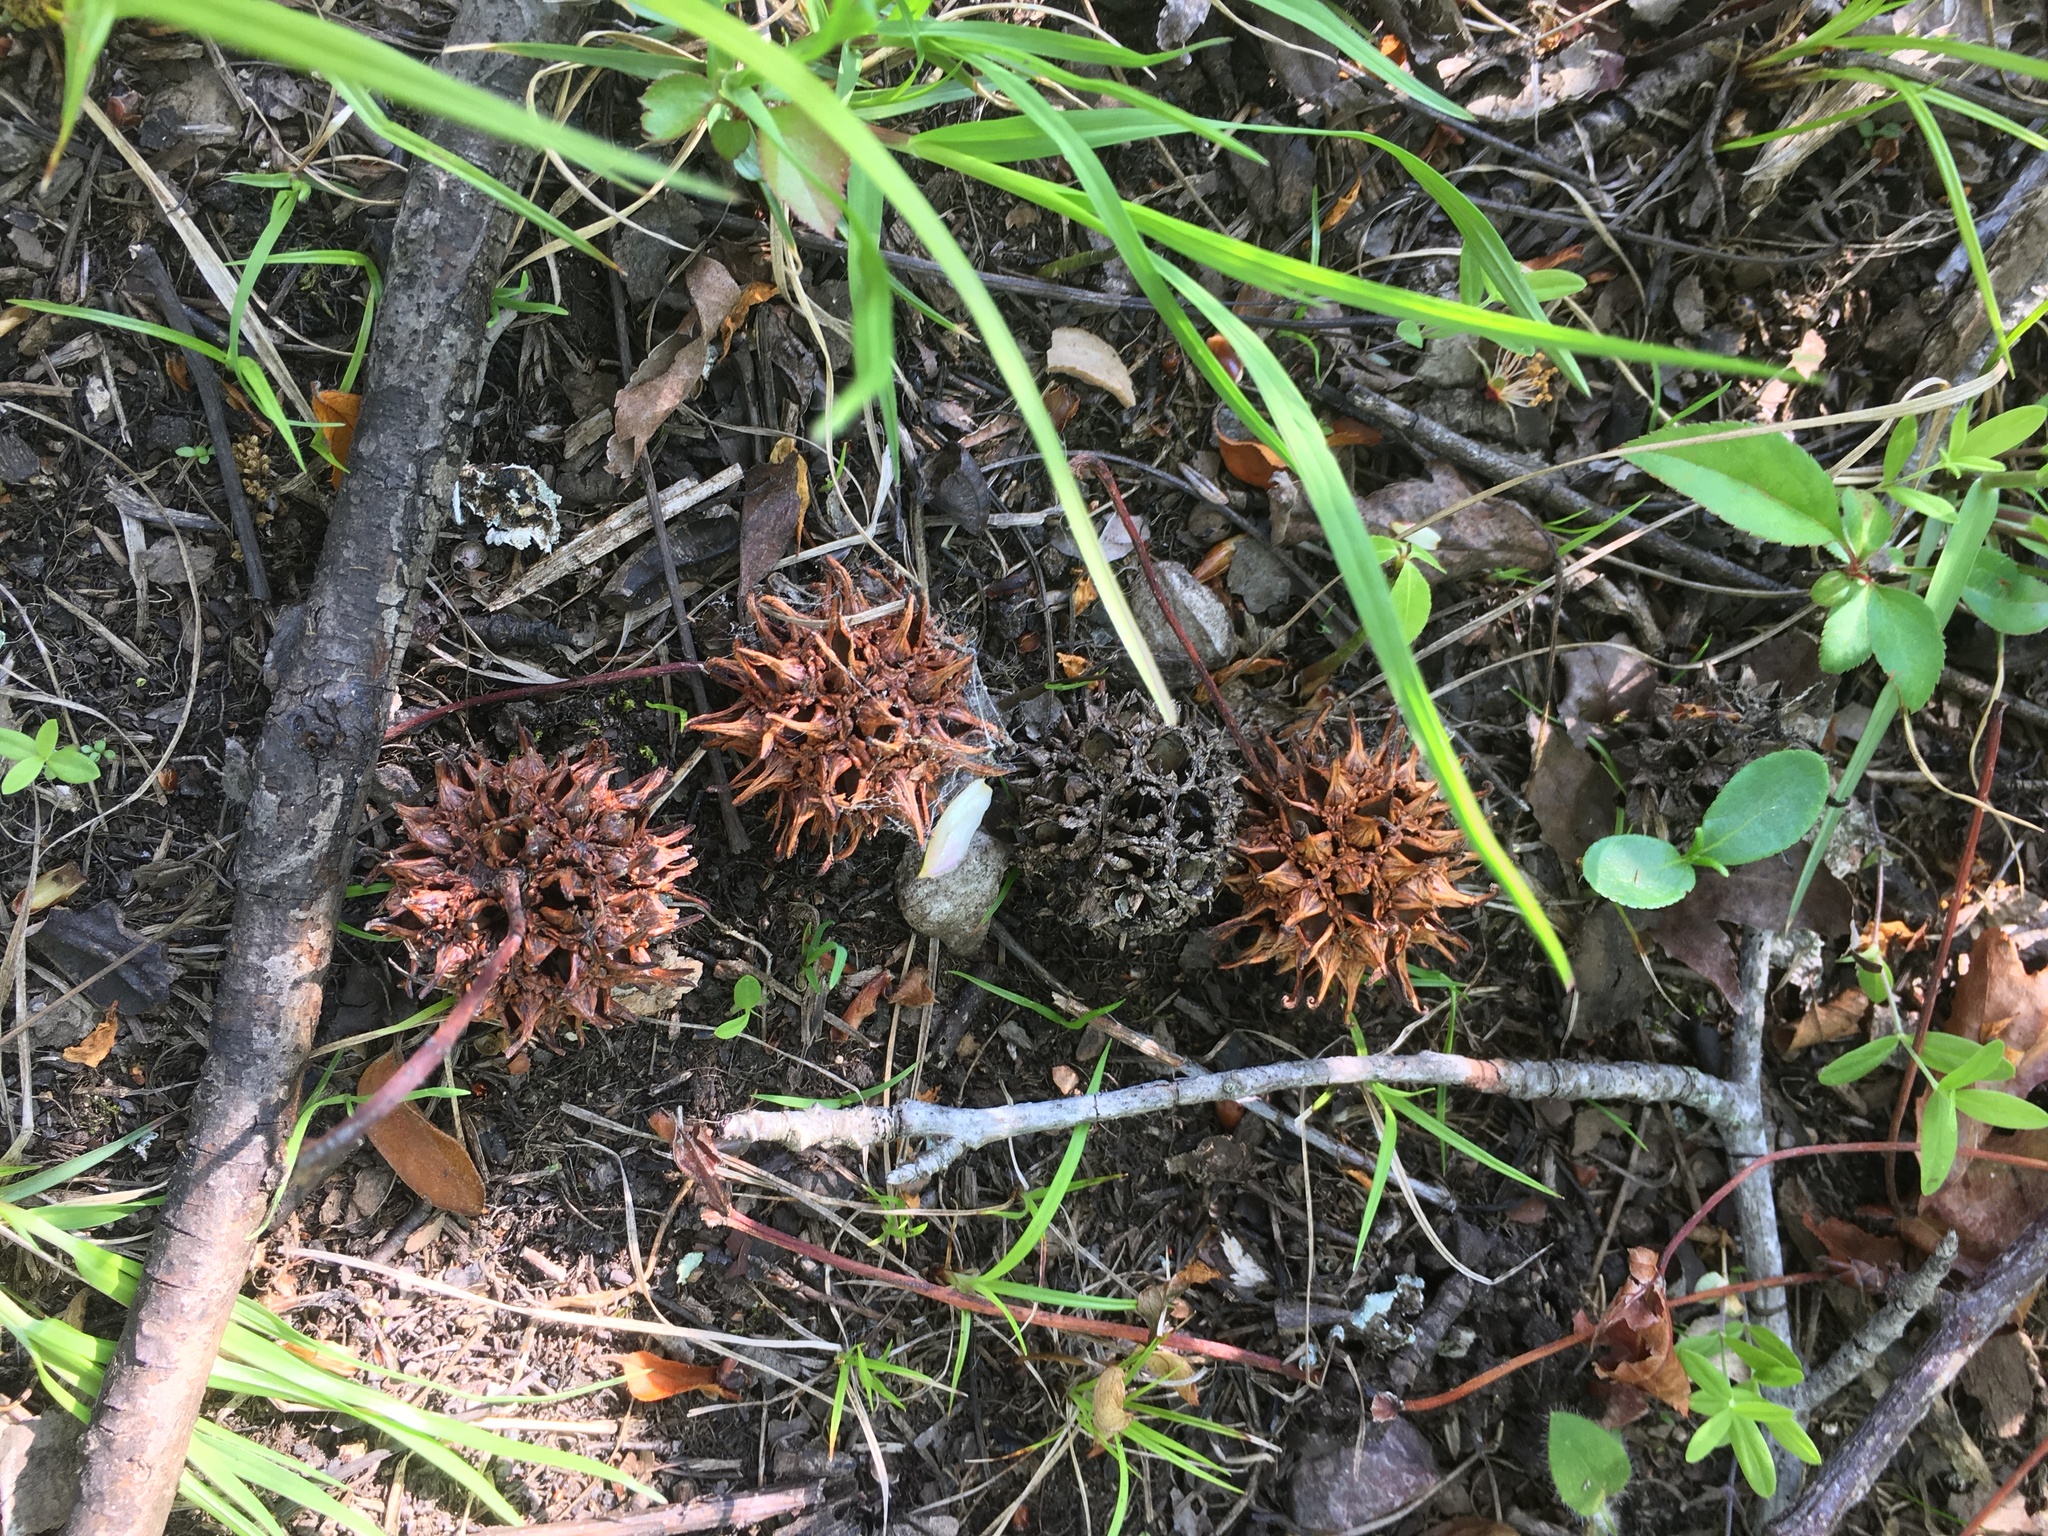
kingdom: Plantae
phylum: Tracheophyta
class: Magnoliopsida
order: Saxifragales
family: Altingiaceae
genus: Liquidambar
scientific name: Liquidambar styraciflua
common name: Sweet gum
